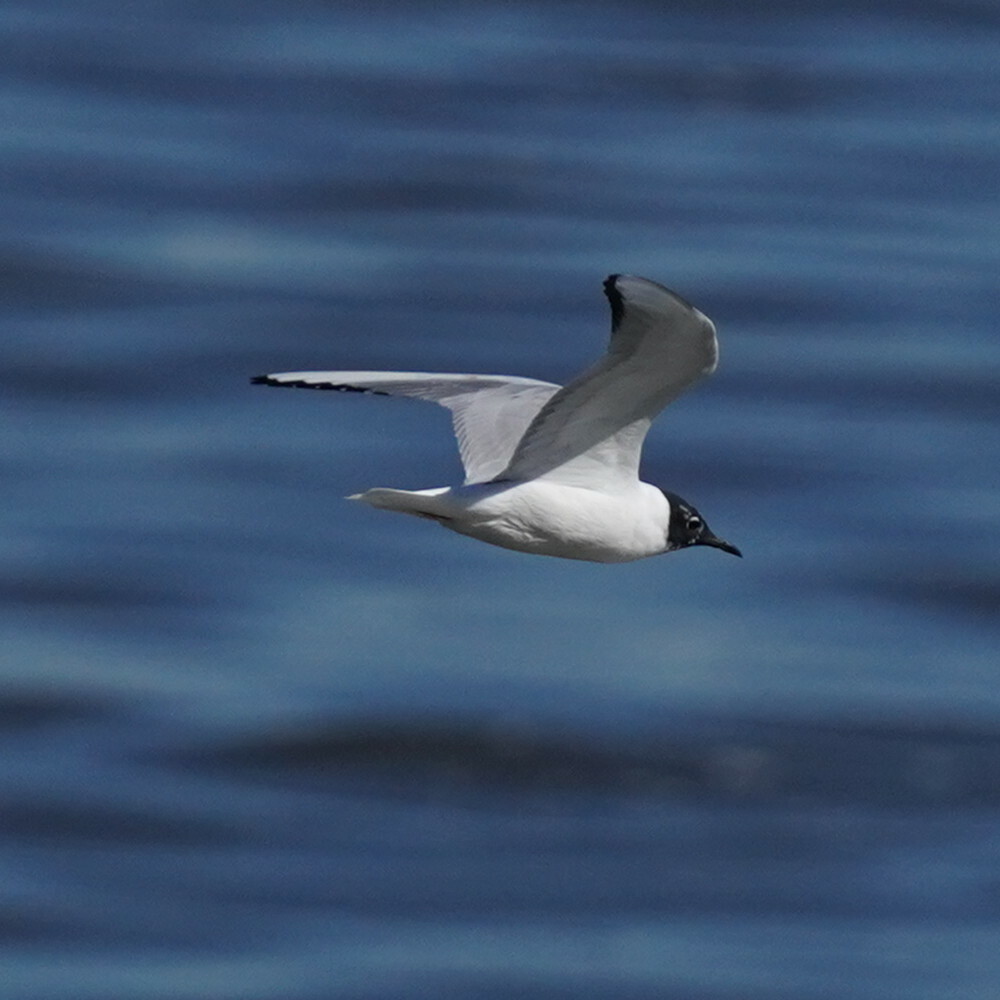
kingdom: Animalia
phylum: Chordata
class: Aves
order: Charadriiformes
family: Laridae
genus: Chroicocephalus
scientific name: Chroicocephalus philadelphia
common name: Bonaparte's gull
